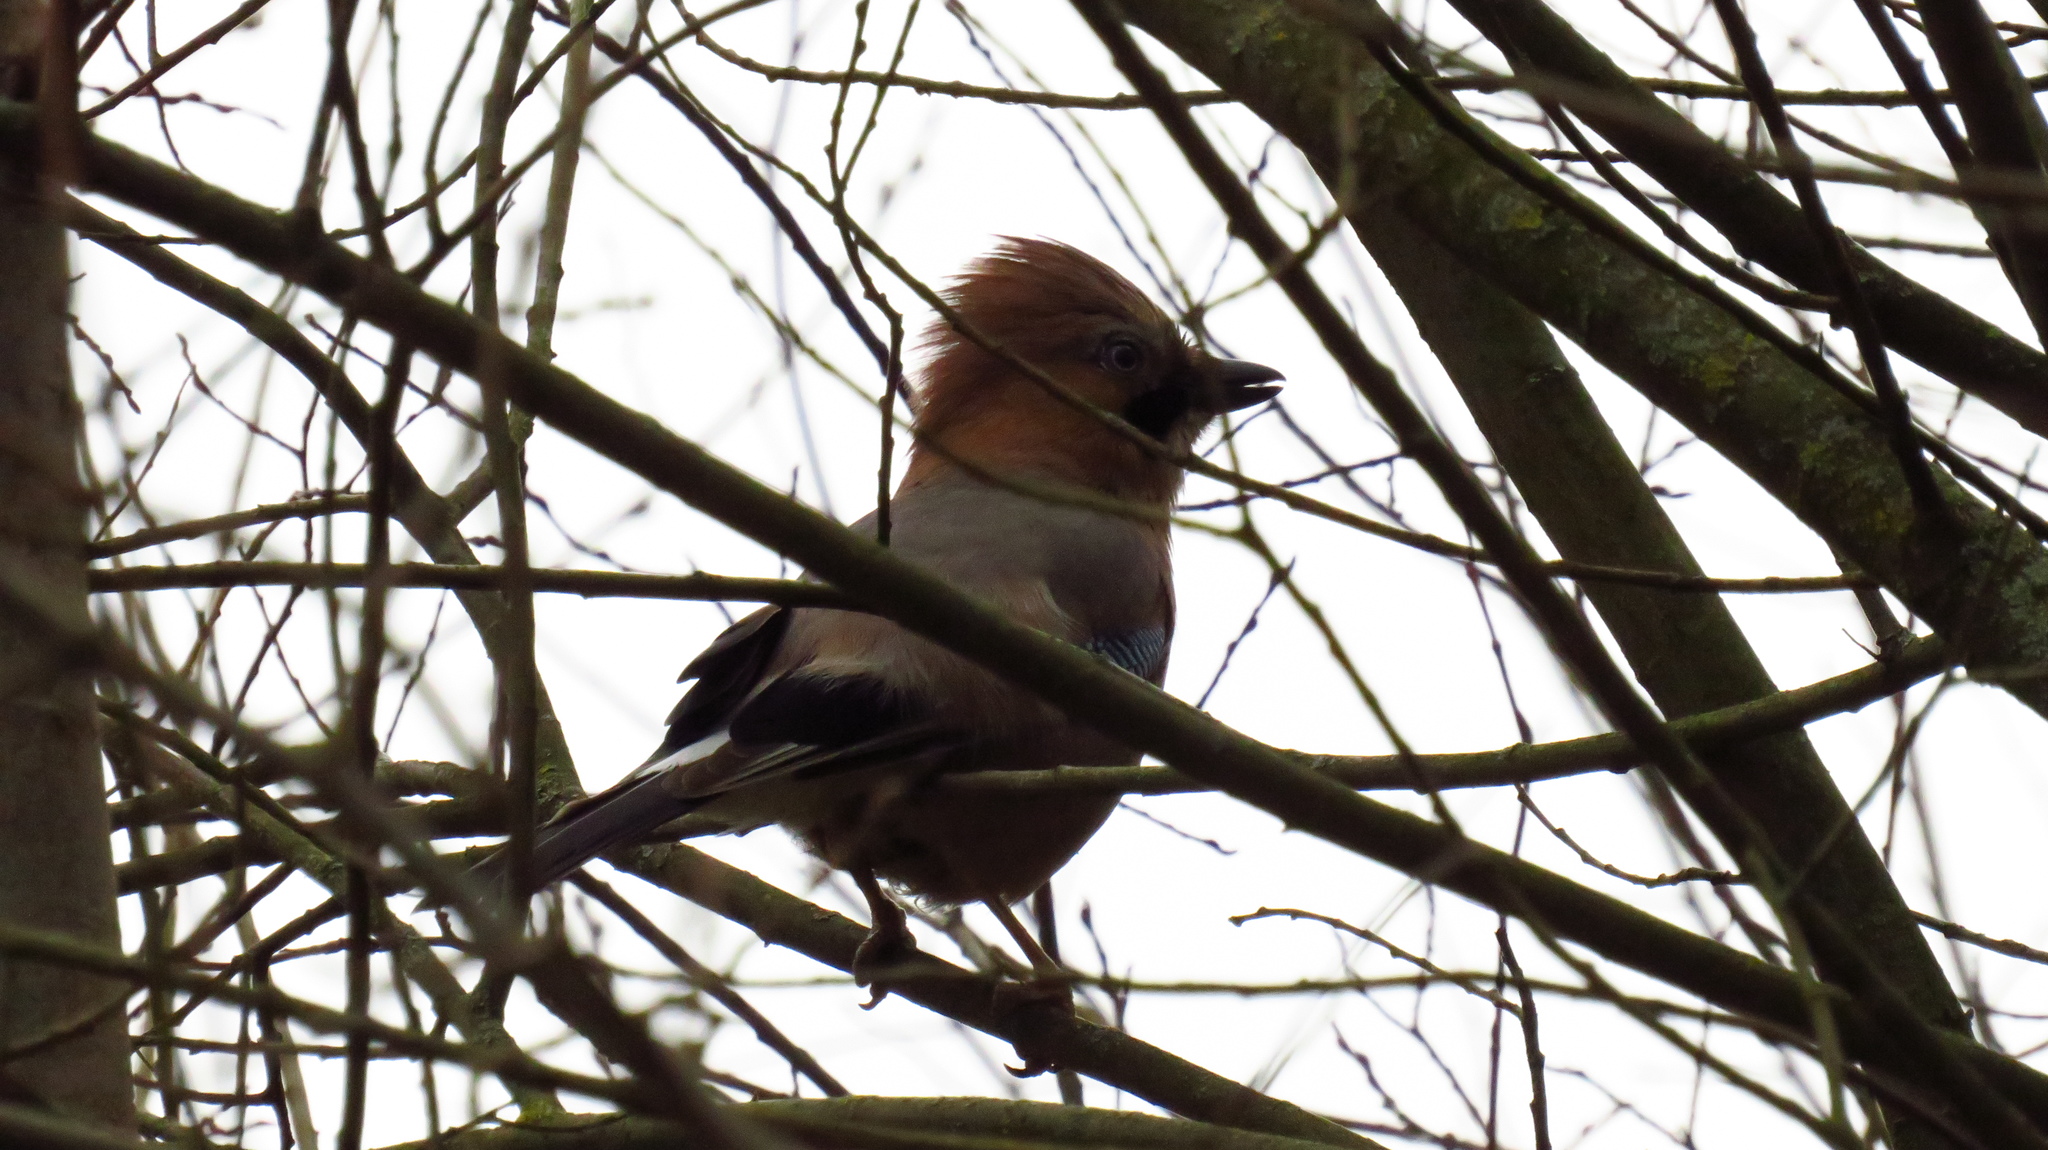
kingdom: Animalia
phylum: Chordata
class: Aves
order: Passeriformes
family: Corvidae
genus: Garrulus
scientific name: Garrulus glandarius
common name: Eurasian jay
